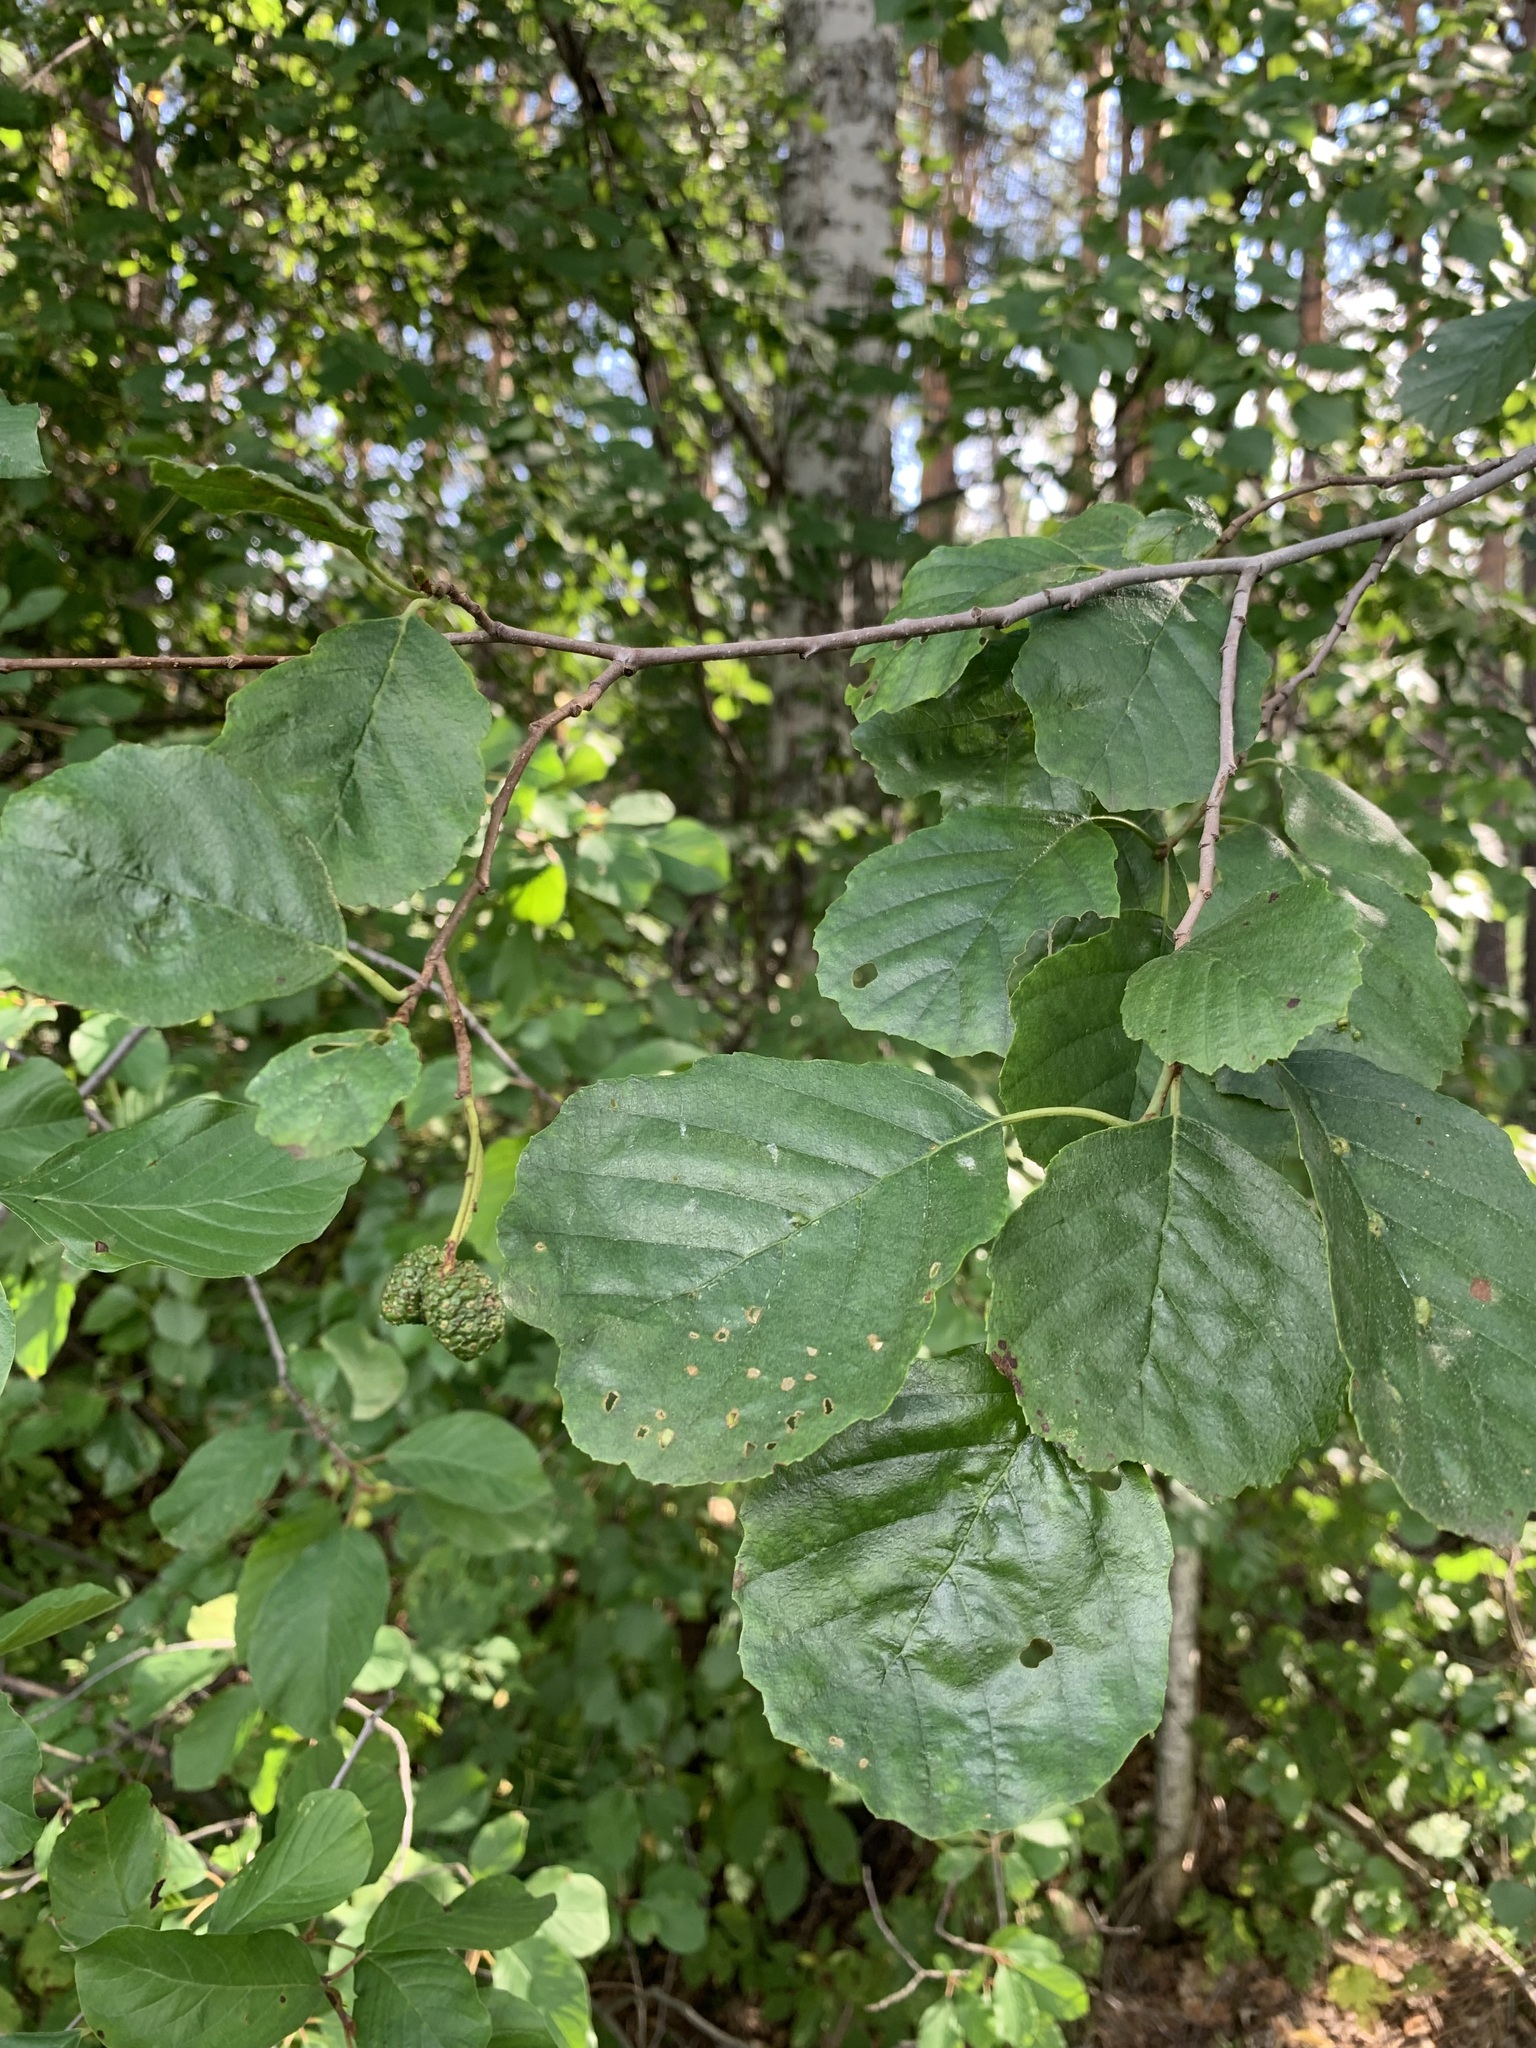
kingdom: Plantae
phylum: Tracheophyta
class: Magnoliopsida
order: Fagales
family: Betulaceae
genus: Alnus
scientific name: Alnus glutinosa
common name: Black alder
